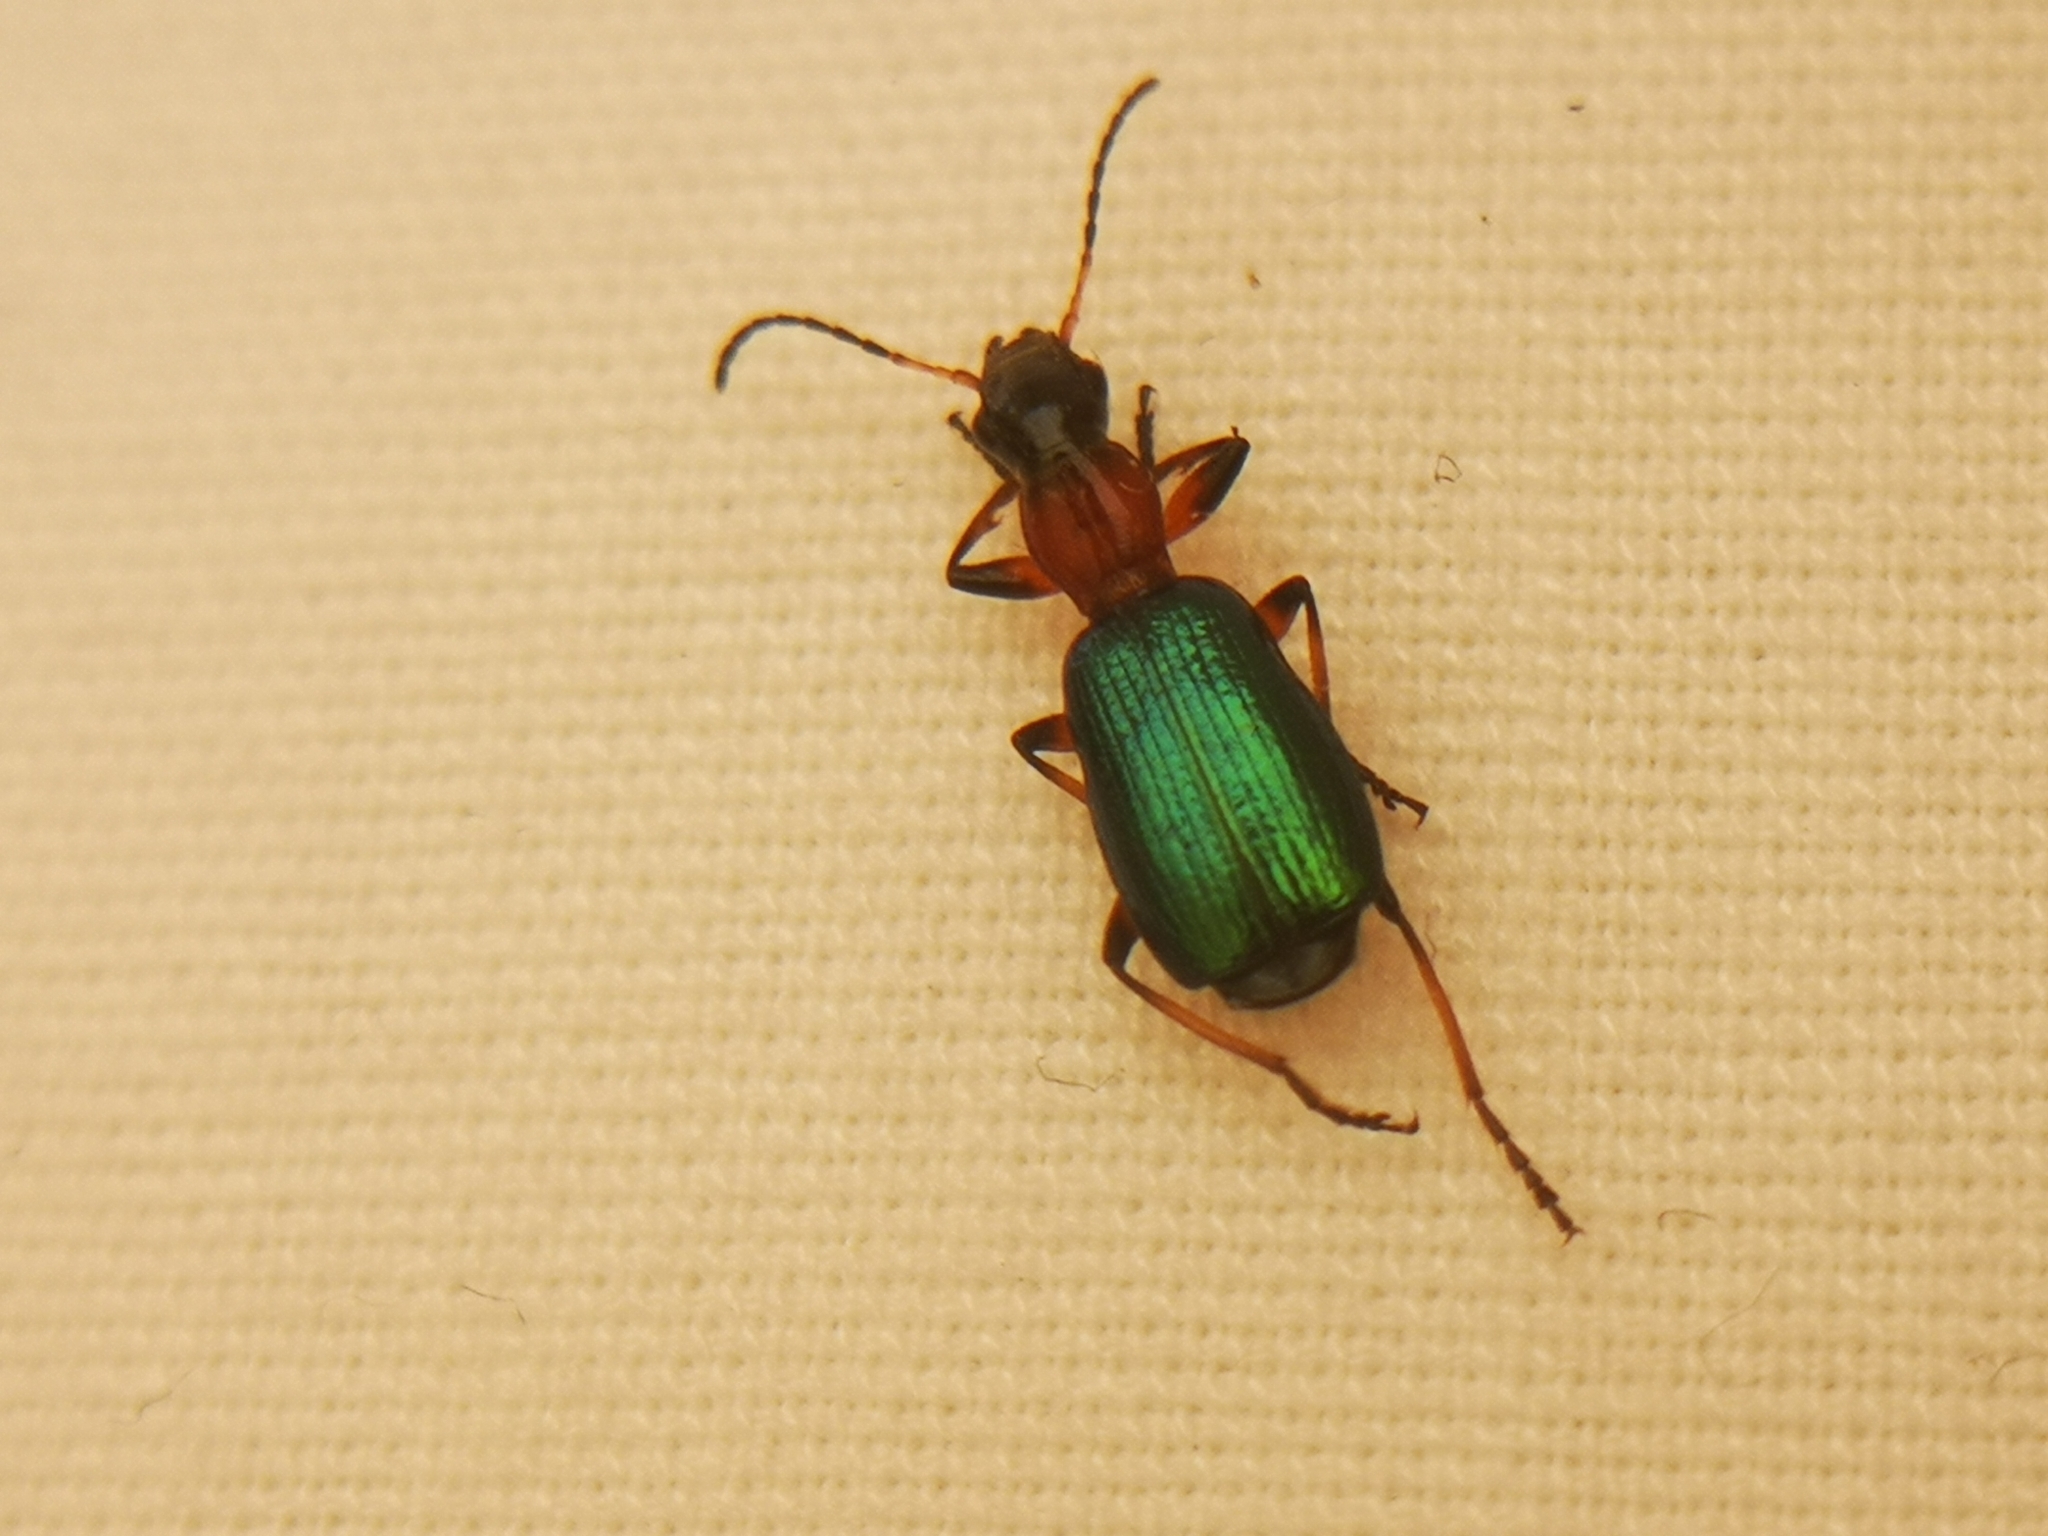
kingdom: Animalia
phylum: Arthropoda
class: Insecta
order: Coleoptera
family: Carabidae
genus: Calleida
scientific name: Calleida punctata
